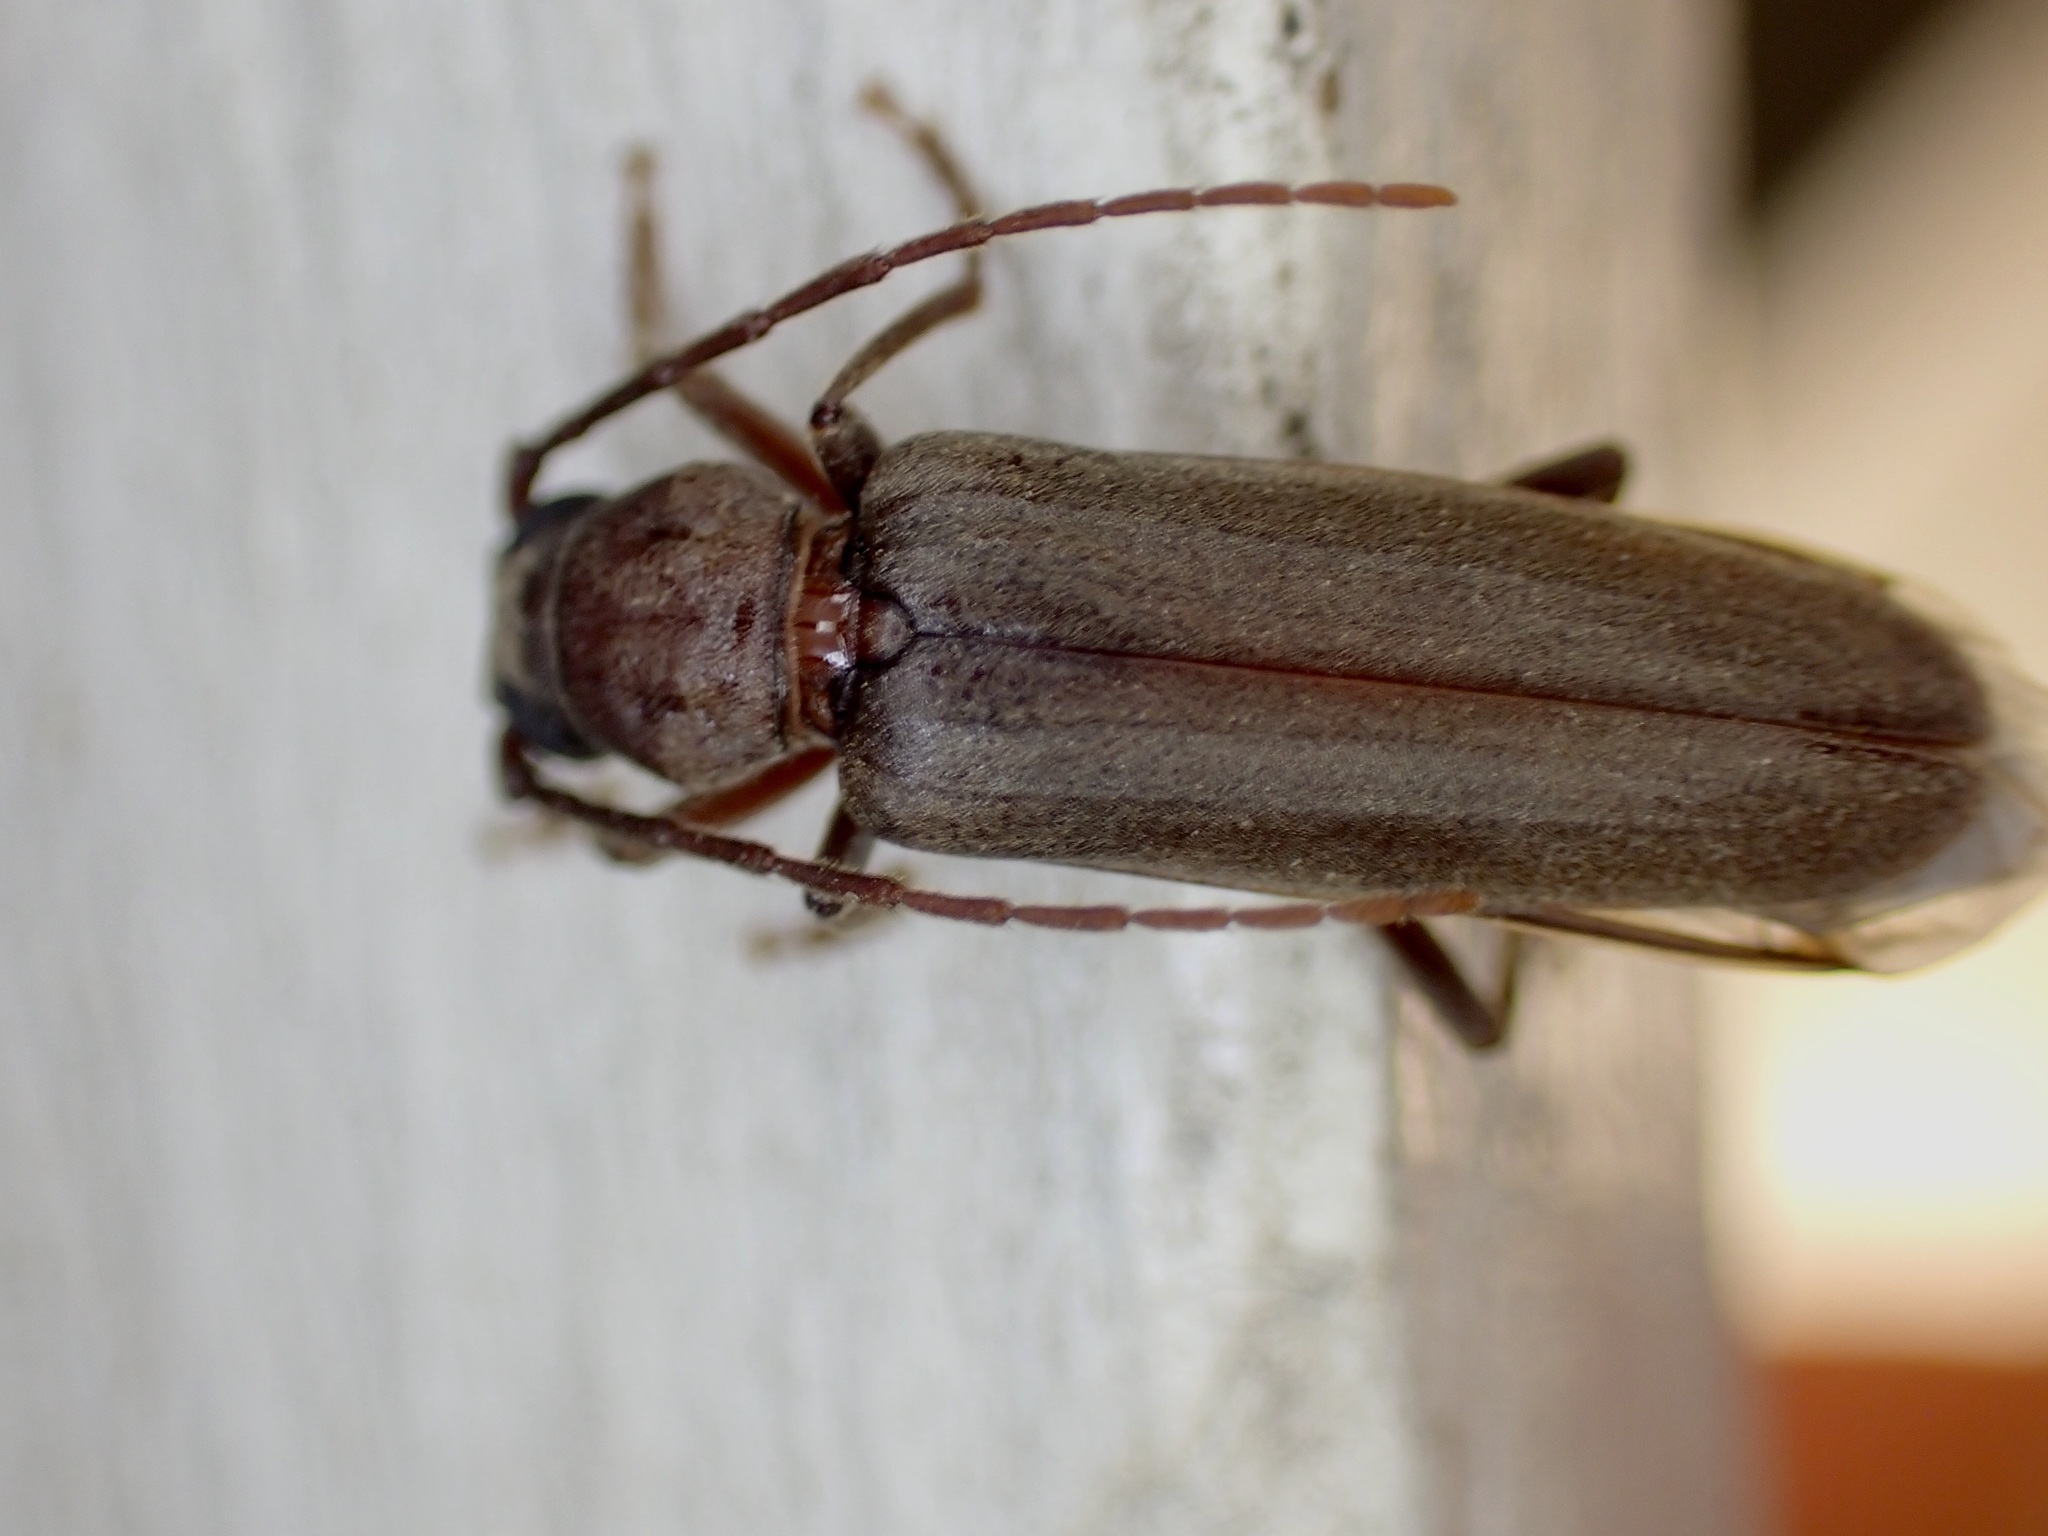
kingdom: Animalia
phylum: Arthropoda
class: Insecta
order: Coleoptera
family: Cerambycidae
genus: Arhopalus
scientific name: Arhopalus ferus
